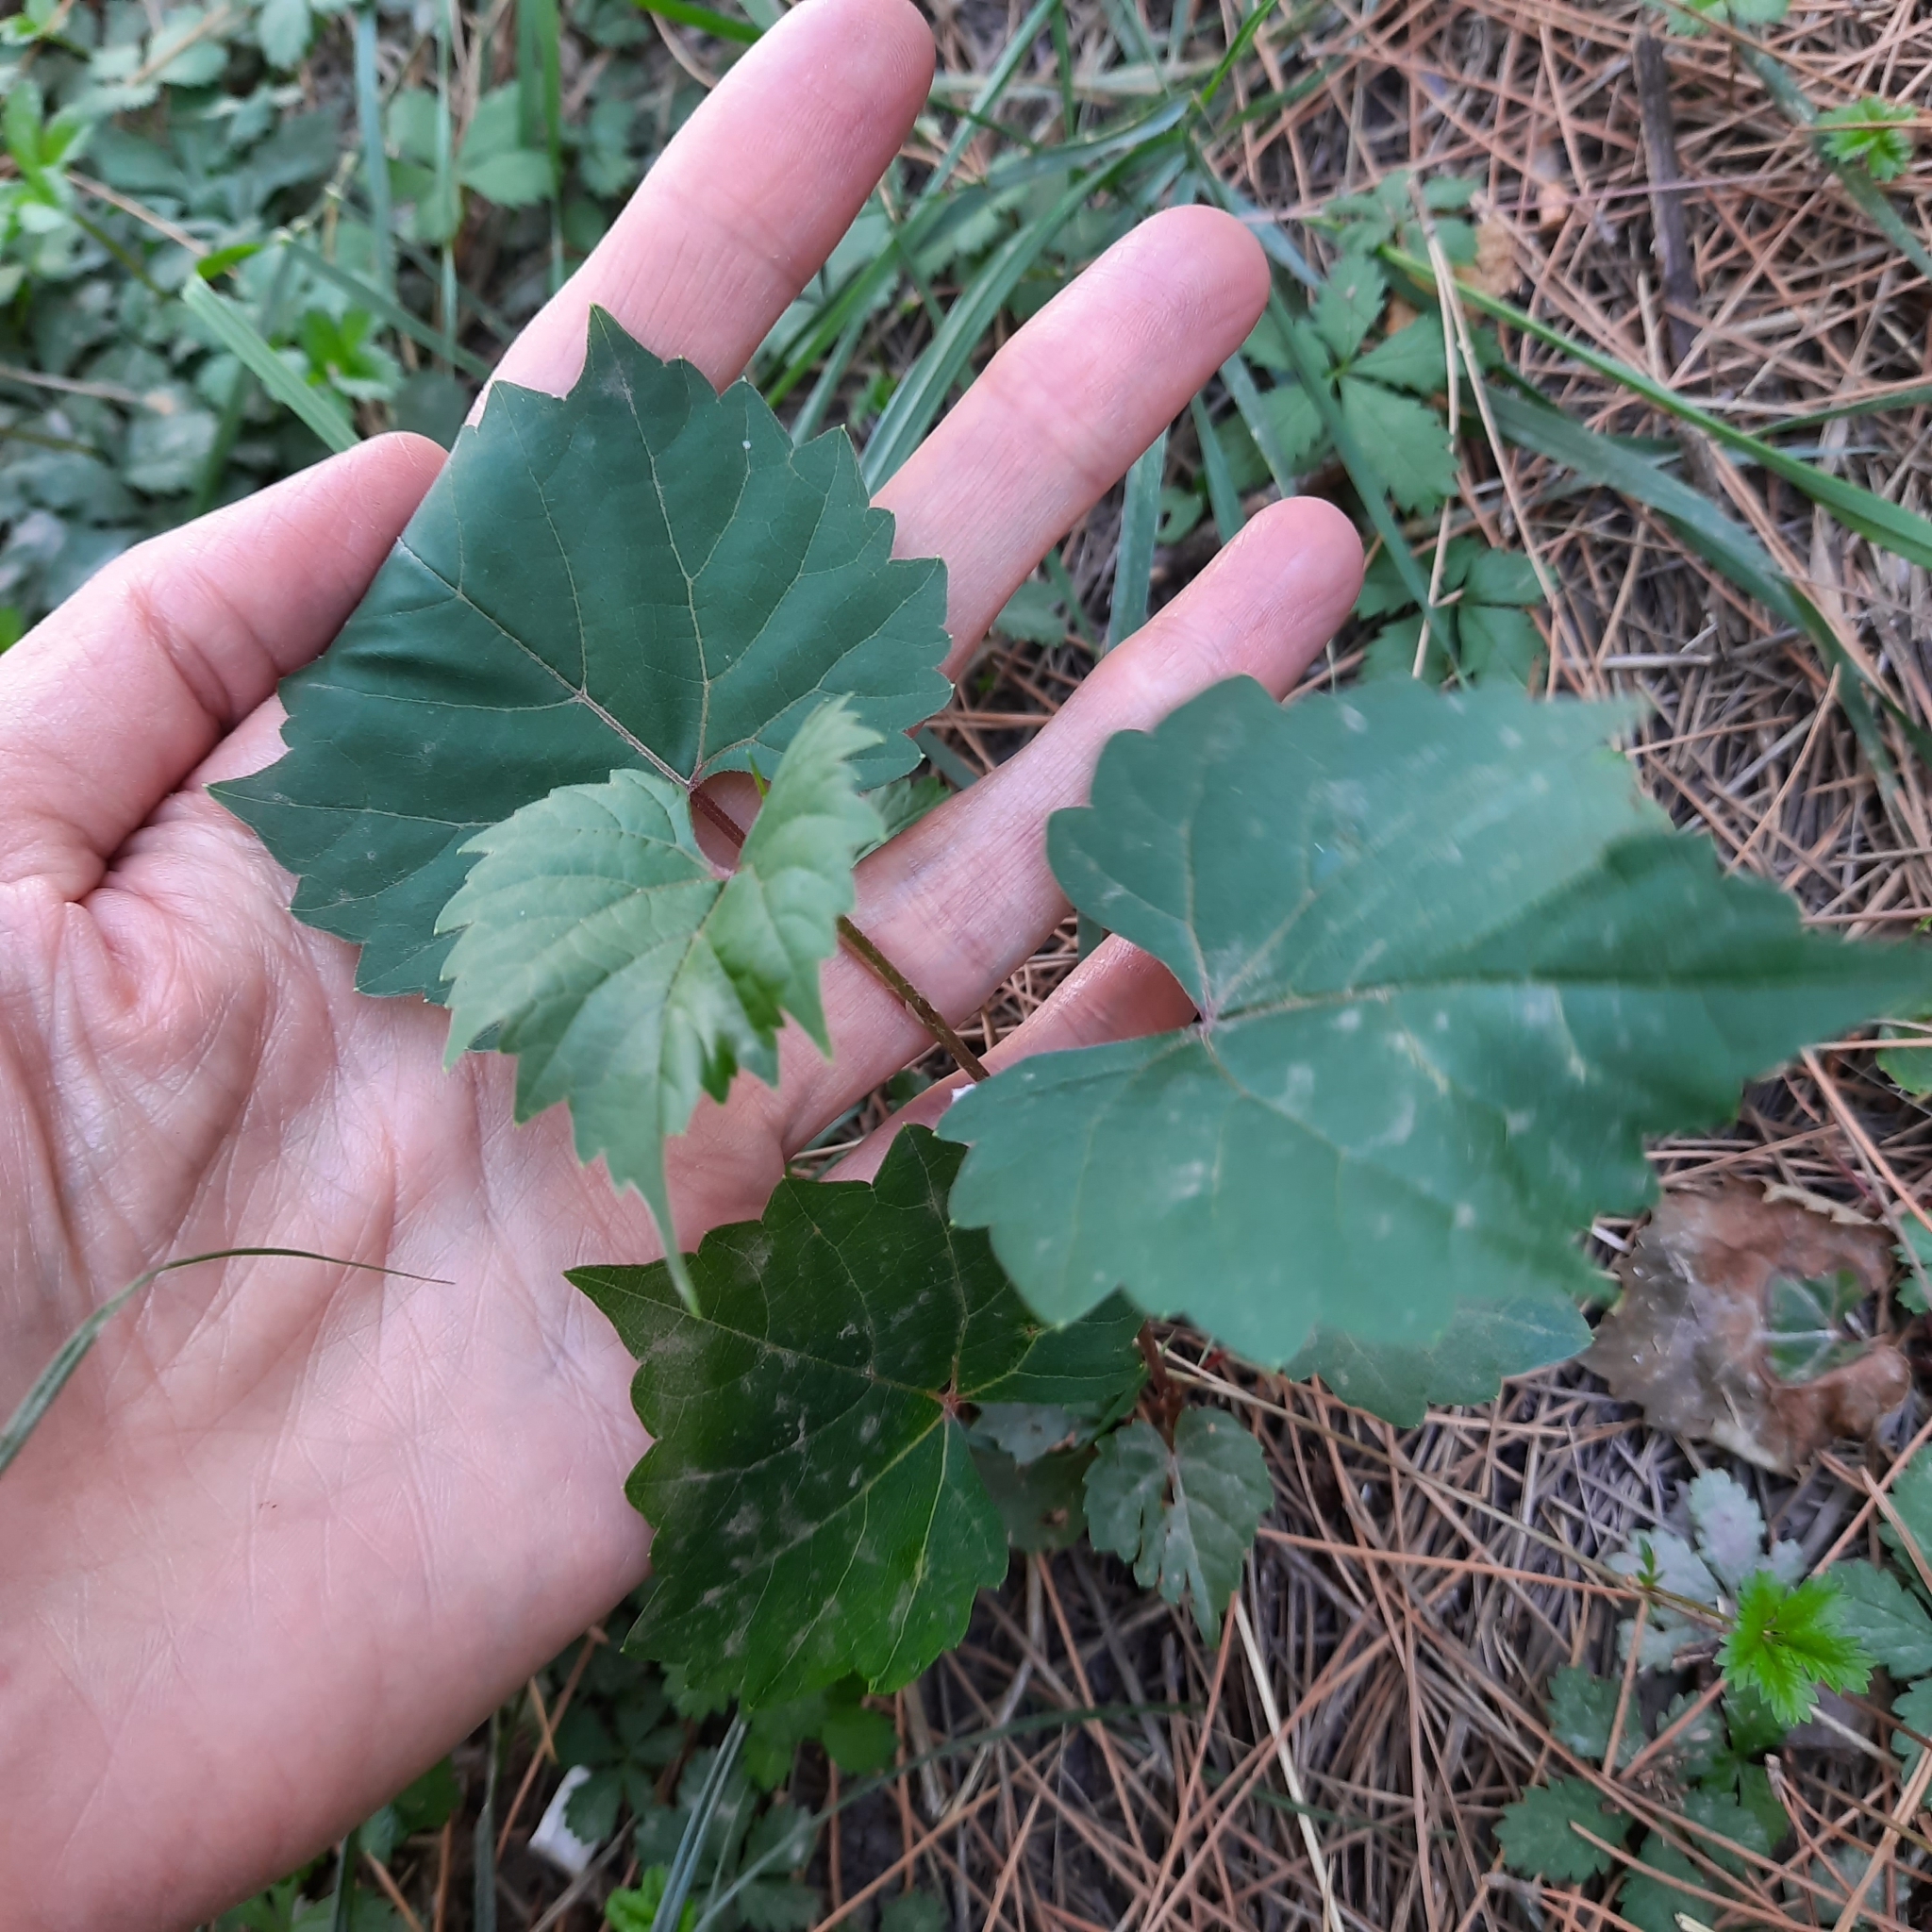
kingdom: Plantae
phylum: Tracheophyta
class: Magnoliopsida
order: Vitales
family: Vitaceae
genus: Vitis
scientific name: Vitis vinifera
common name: Grape-vine
